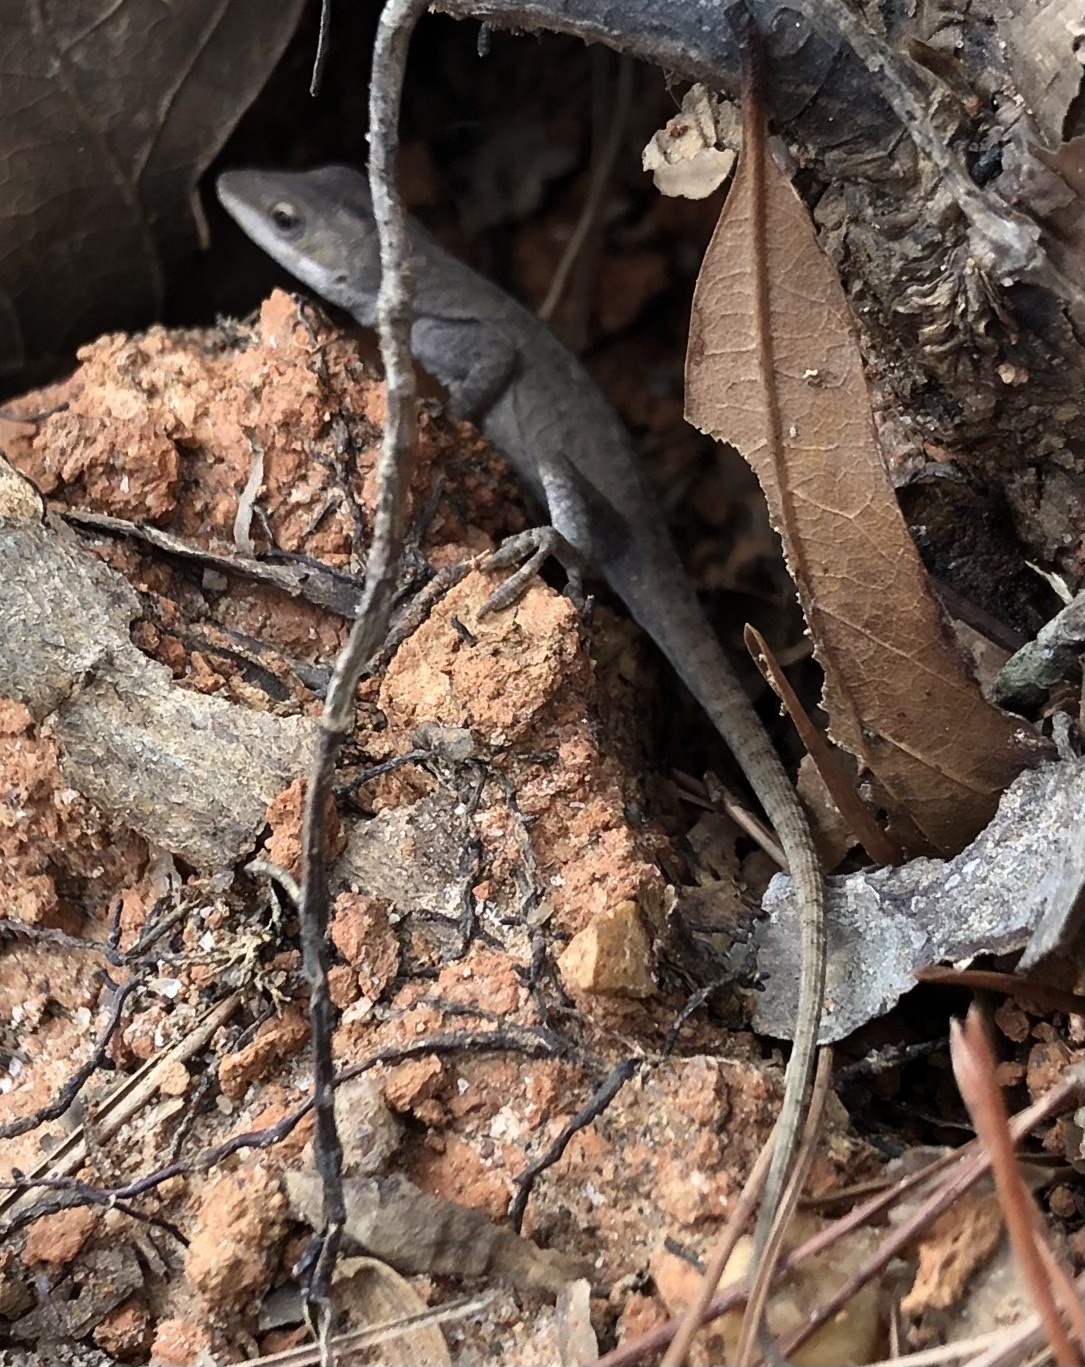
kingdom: Animalia
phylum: Chordata
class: Squamata
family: Dactyloidae
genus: Anolis
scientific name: Anolis carolinensis
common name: Green anole
